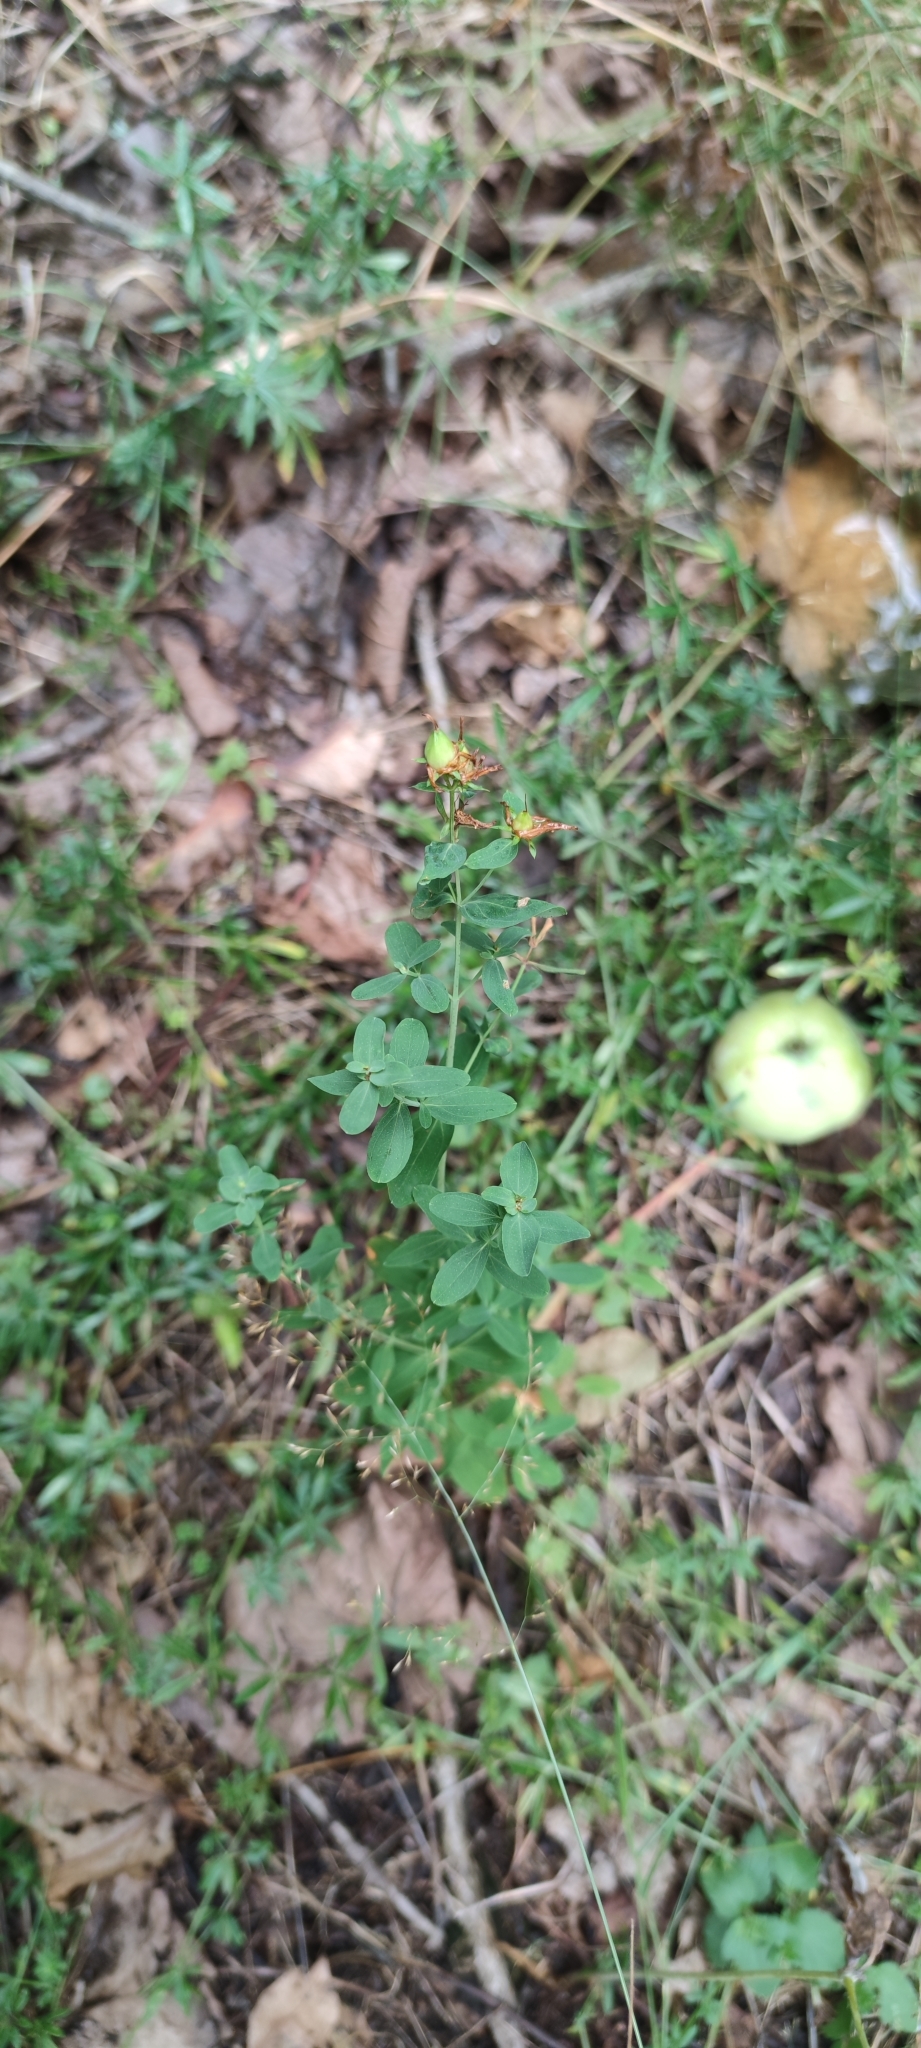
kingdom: Plantae
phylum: Tracheophyta
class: Magnoliopsida
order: Malpighiales
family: Hypericaceae
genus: Hypericum
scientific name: Hypericum perforatum
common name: Common st. johnswort
